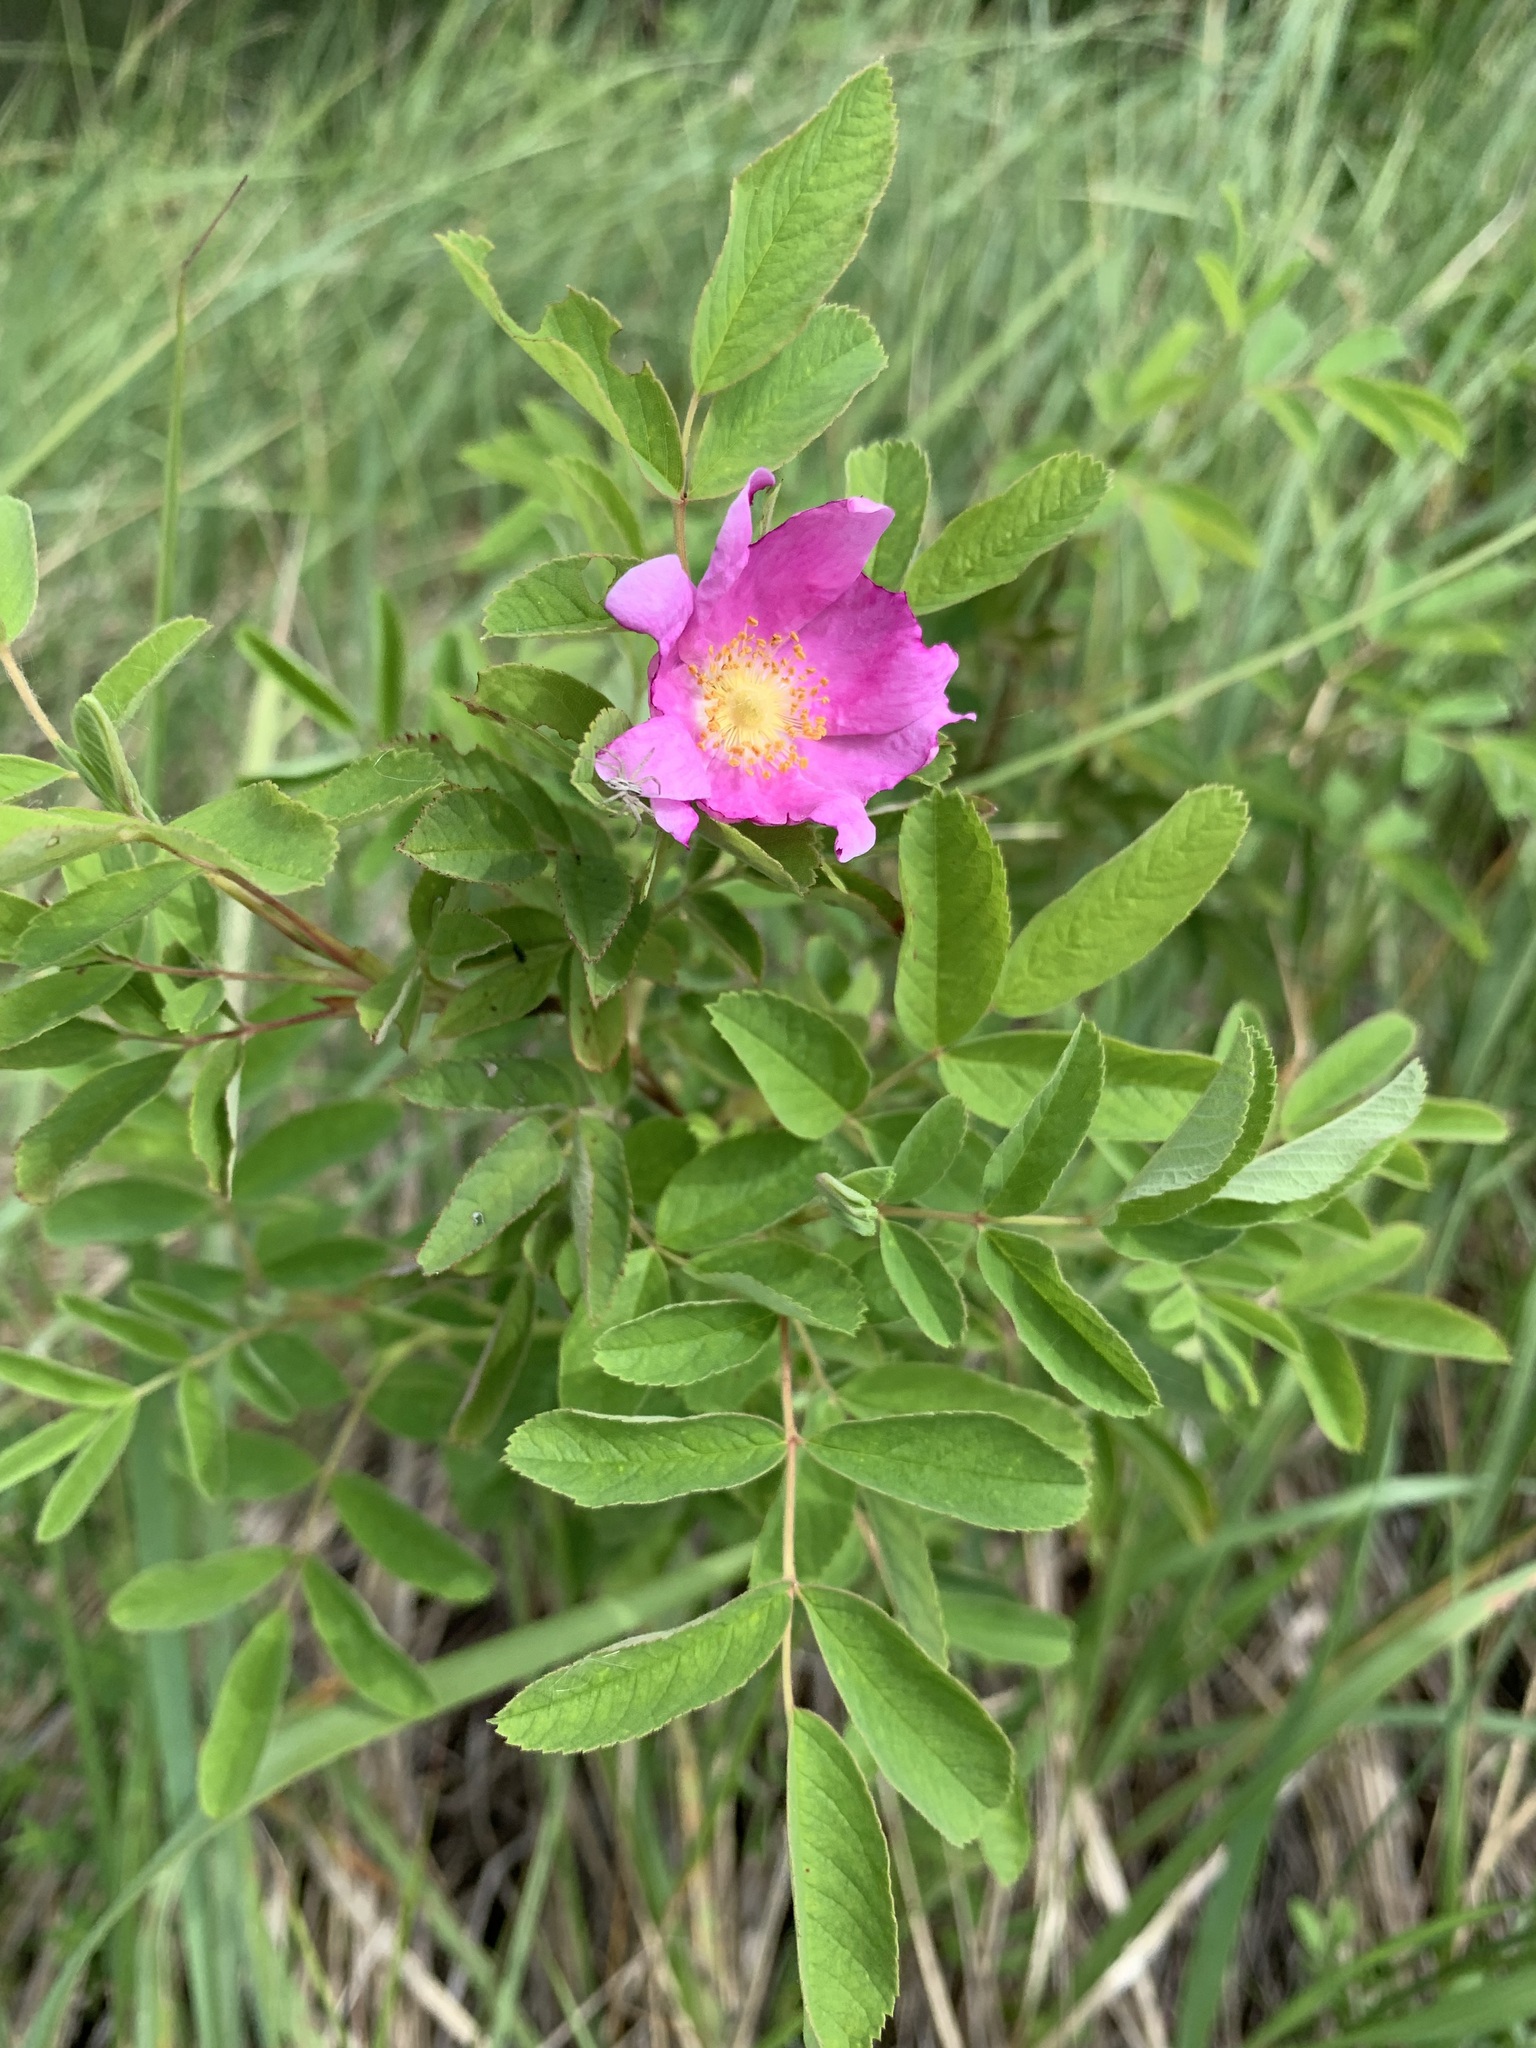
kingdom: Plantae
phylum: Tracheophyta
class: Magnoliopsida
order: Rosales
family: Rosaceae
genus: Rosa
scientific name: Rosa majalis
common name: Cinnamon rose
